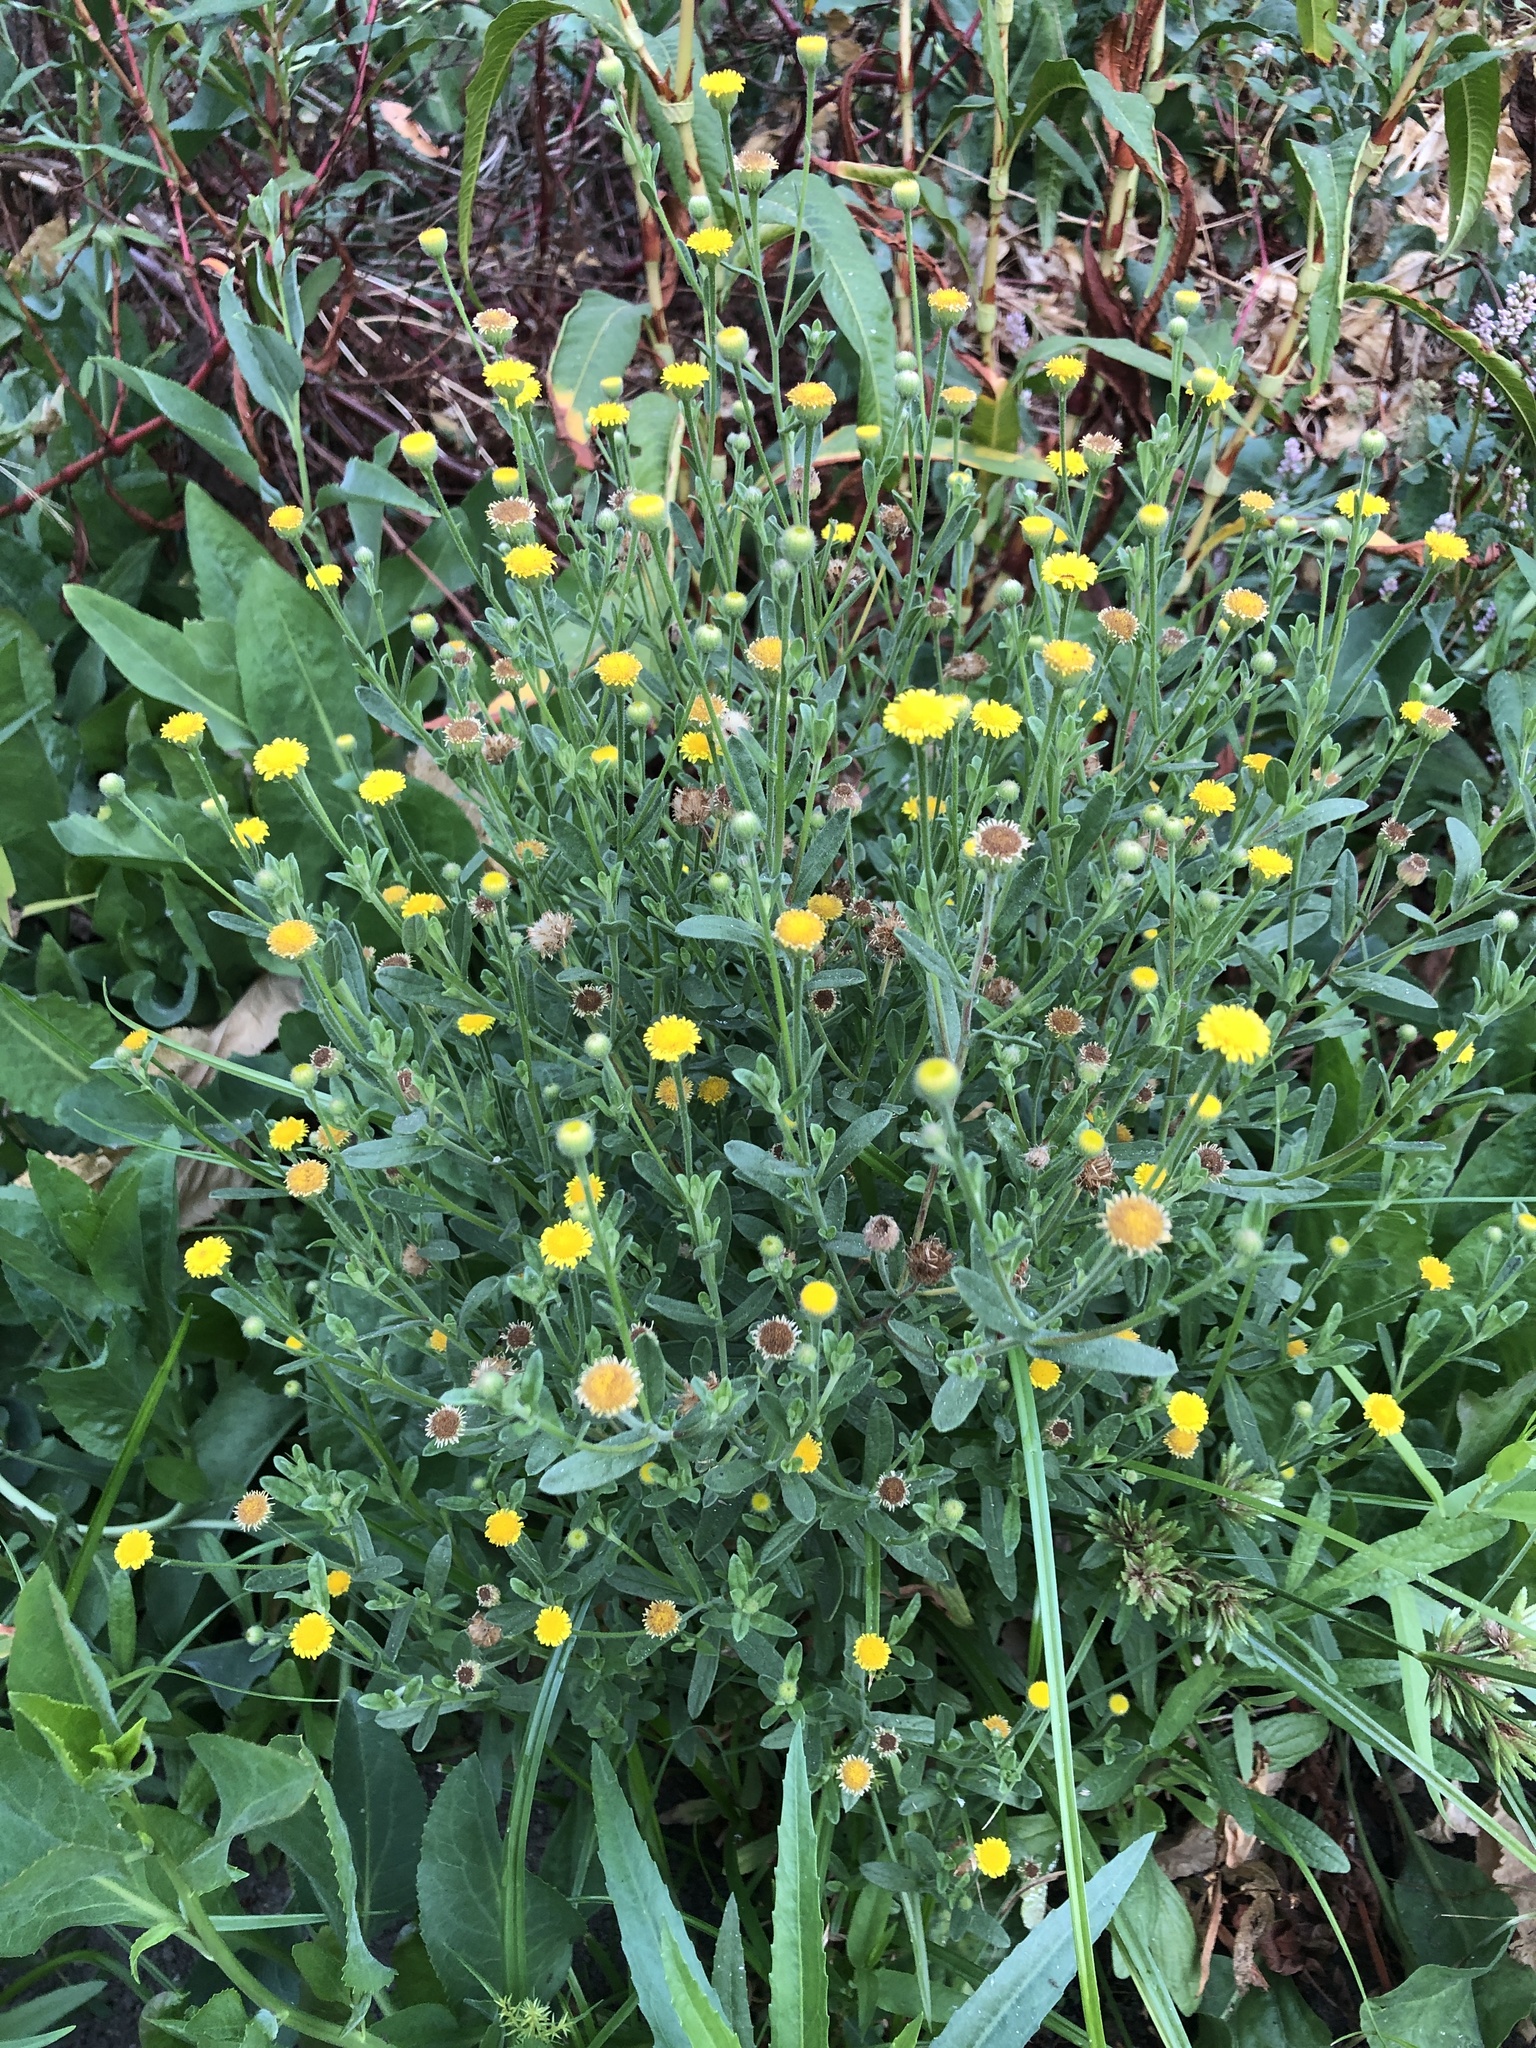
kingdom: Plantae
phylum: Tracheophyta
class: Magnoliopsida
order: Asterales
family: Asteraceae
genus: Pulicaria
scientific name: Pulicaria paludosa
